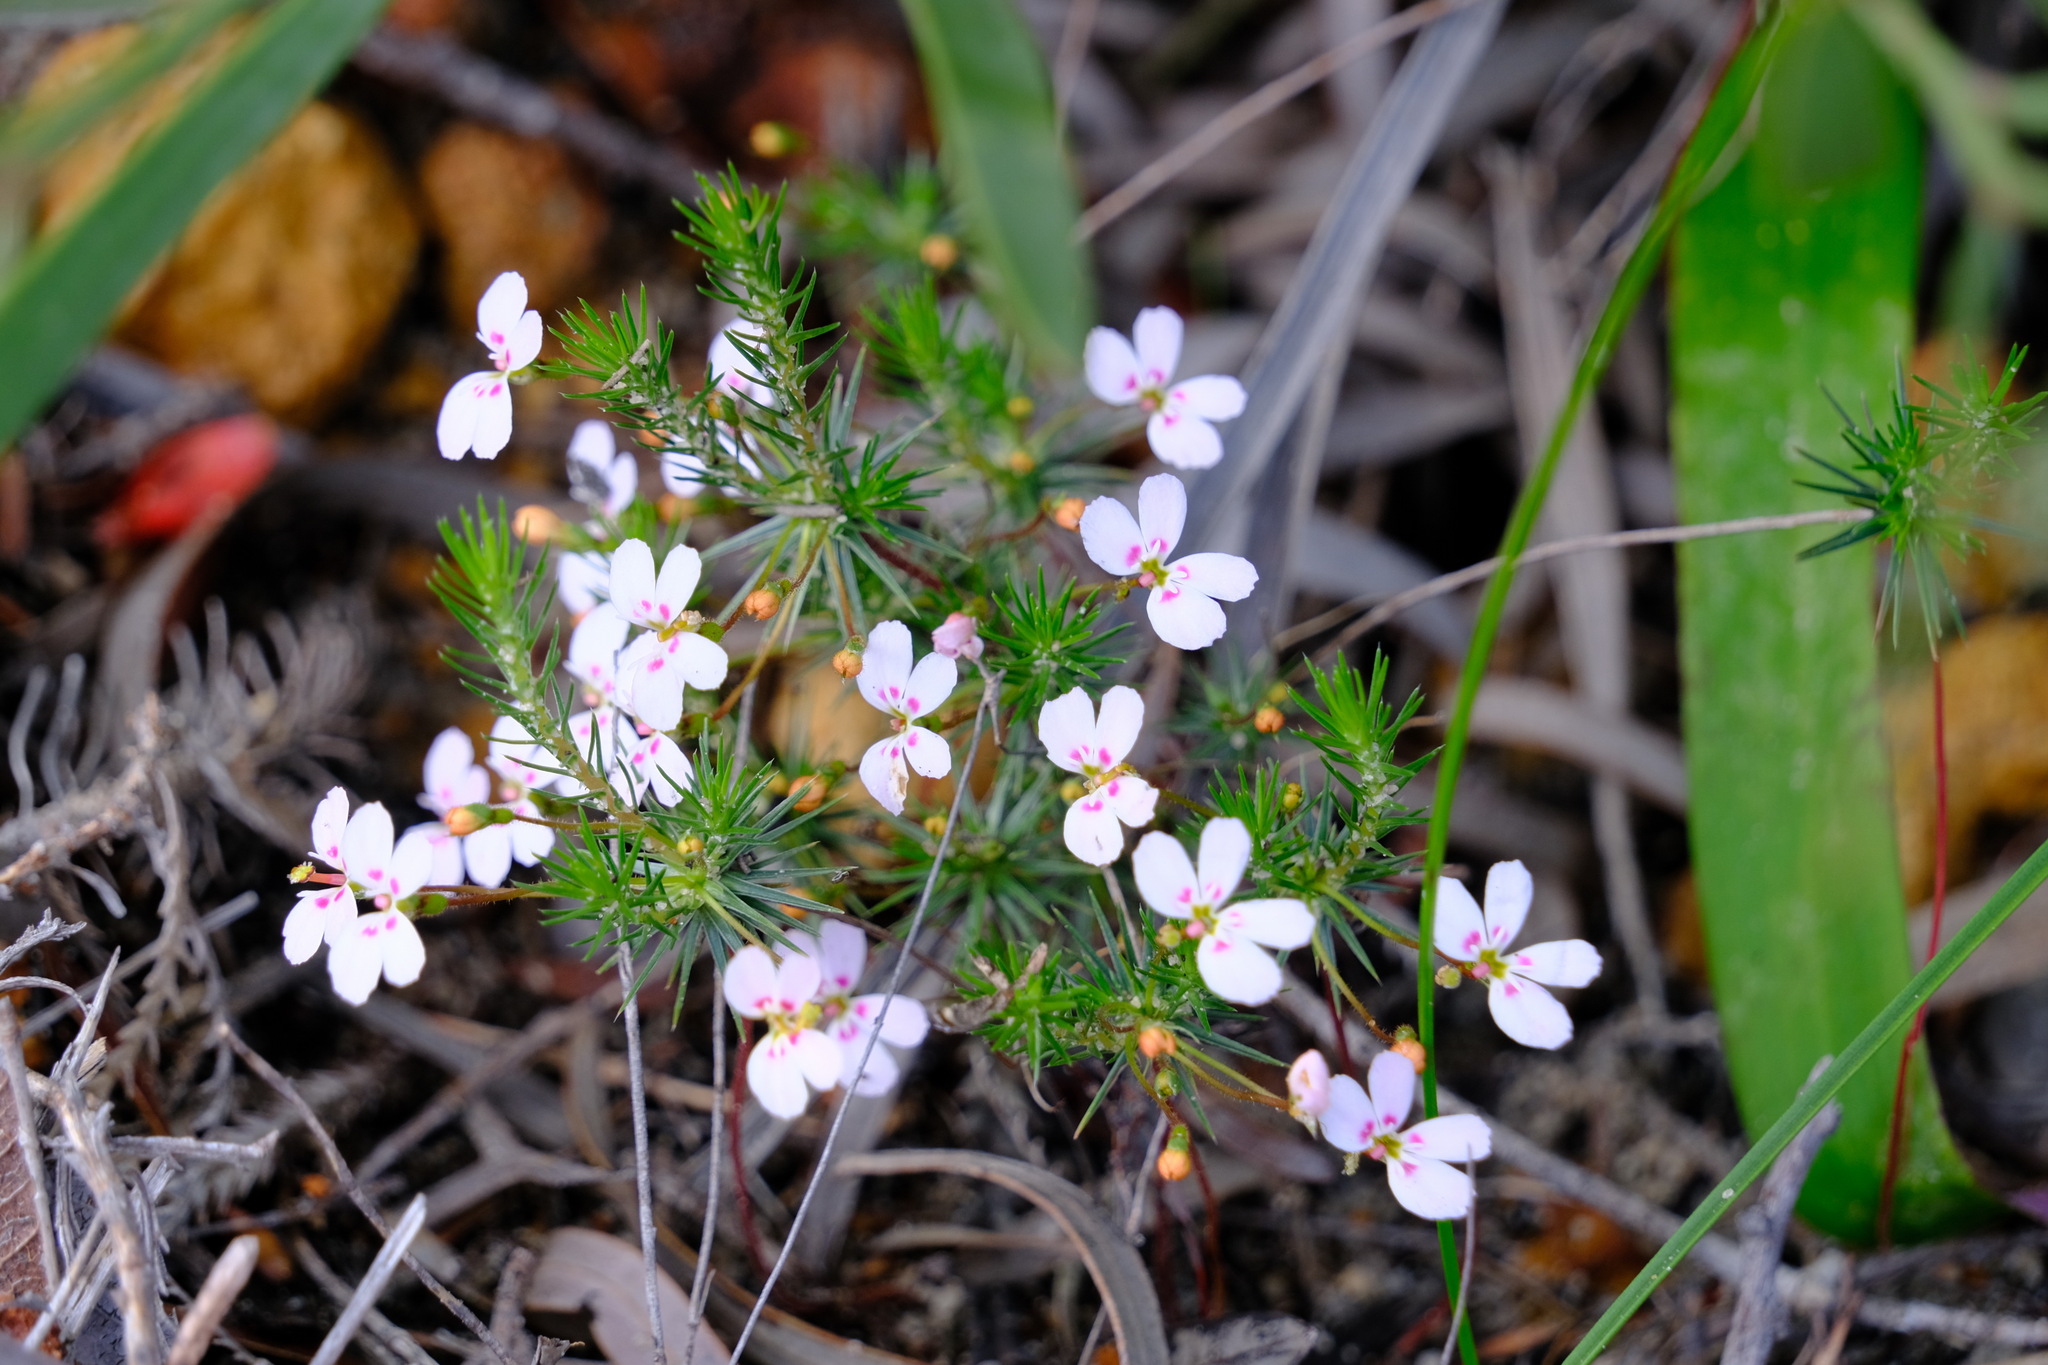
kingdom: Plantae
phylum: Tracheophyta
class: Magnoliopsida
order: Asterales
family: Stylidiaceae
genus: Stylidium
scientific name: Stylidium flagellum
